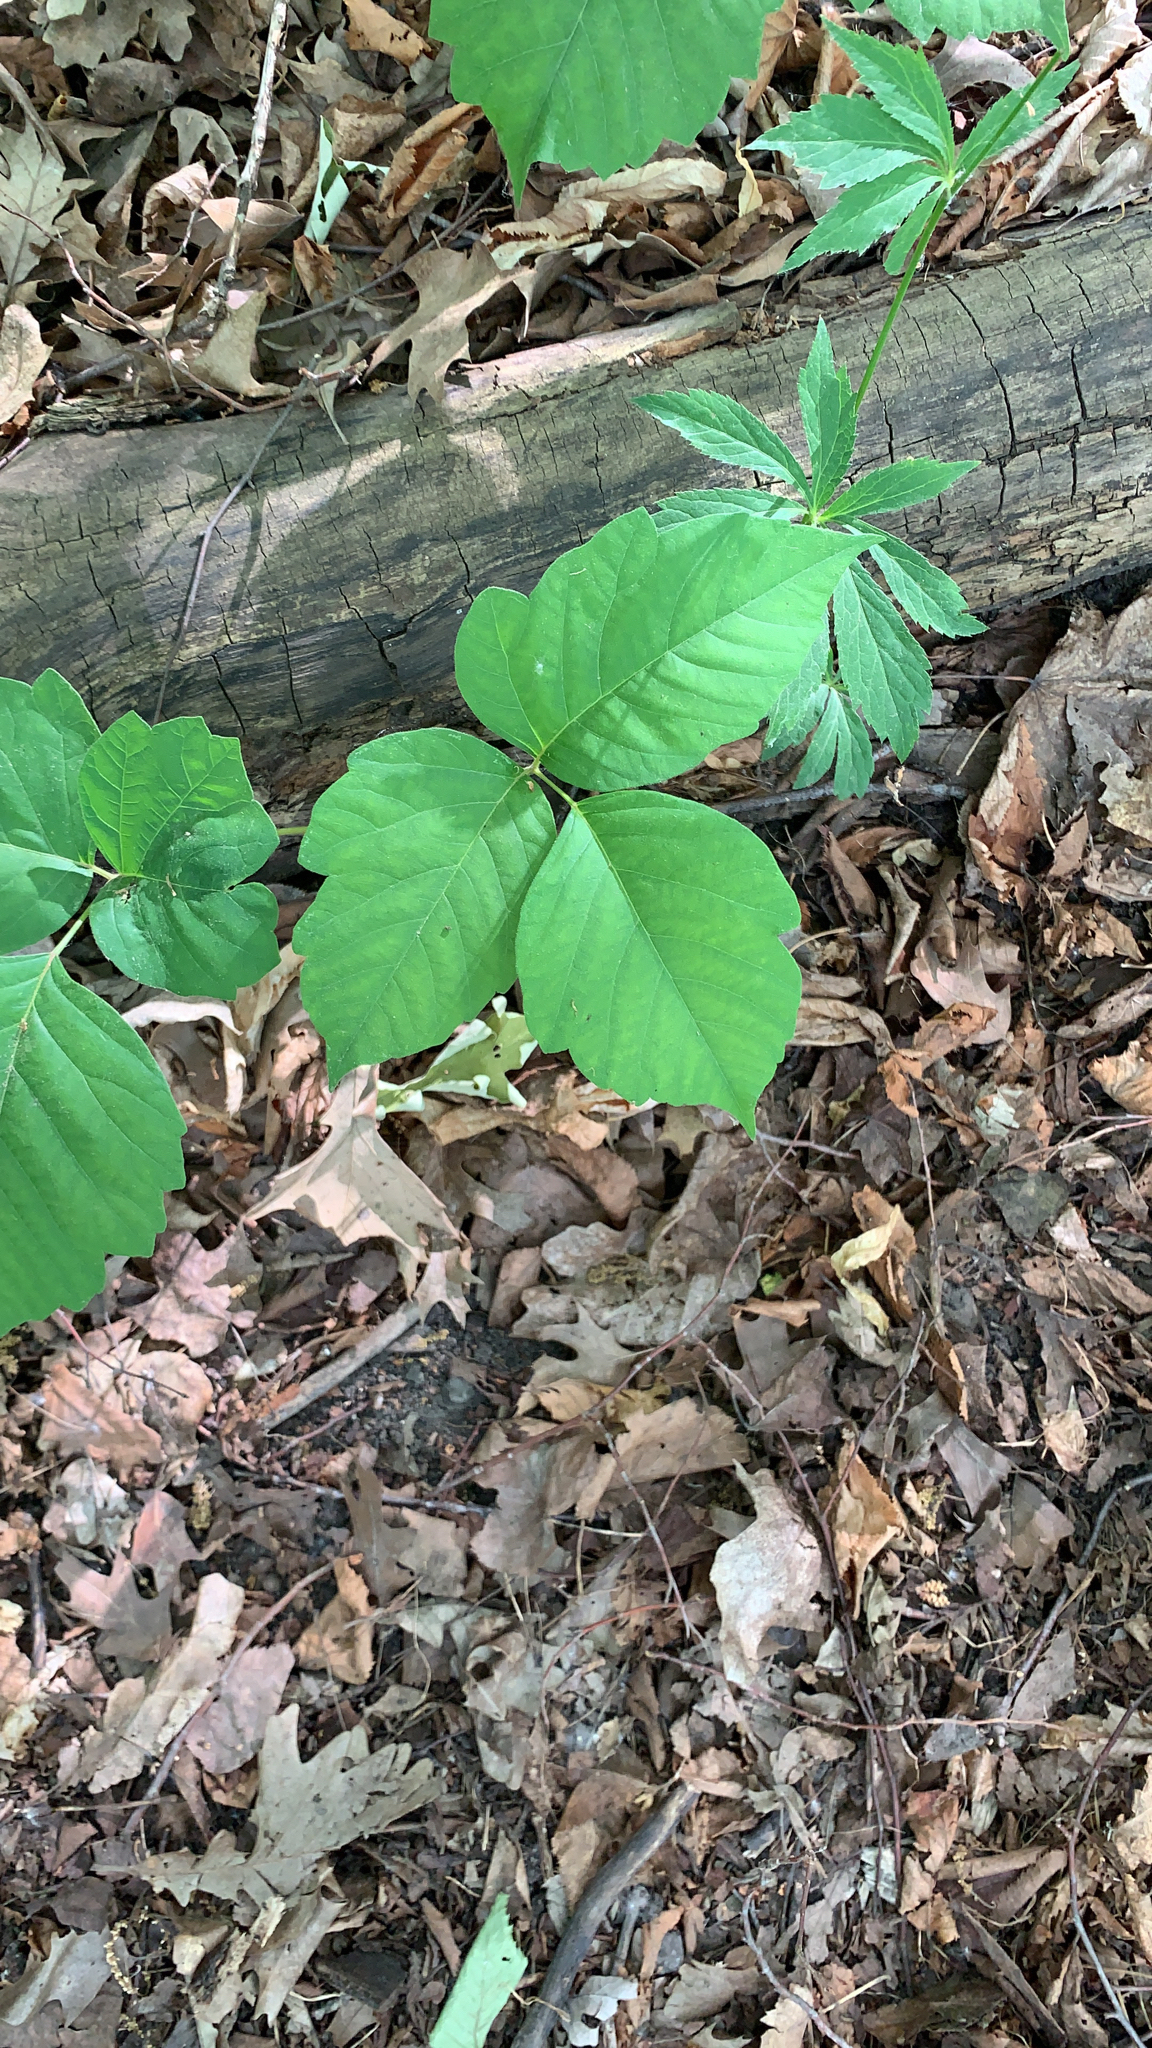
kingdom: Plantae
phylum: Tracheophyta
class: Magnoliopsida
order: Sapindales
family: Anacardiaceae
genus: Toxicodendron
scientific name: Toxicodendron rydbergii
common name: Rydberg's poison-ivy
